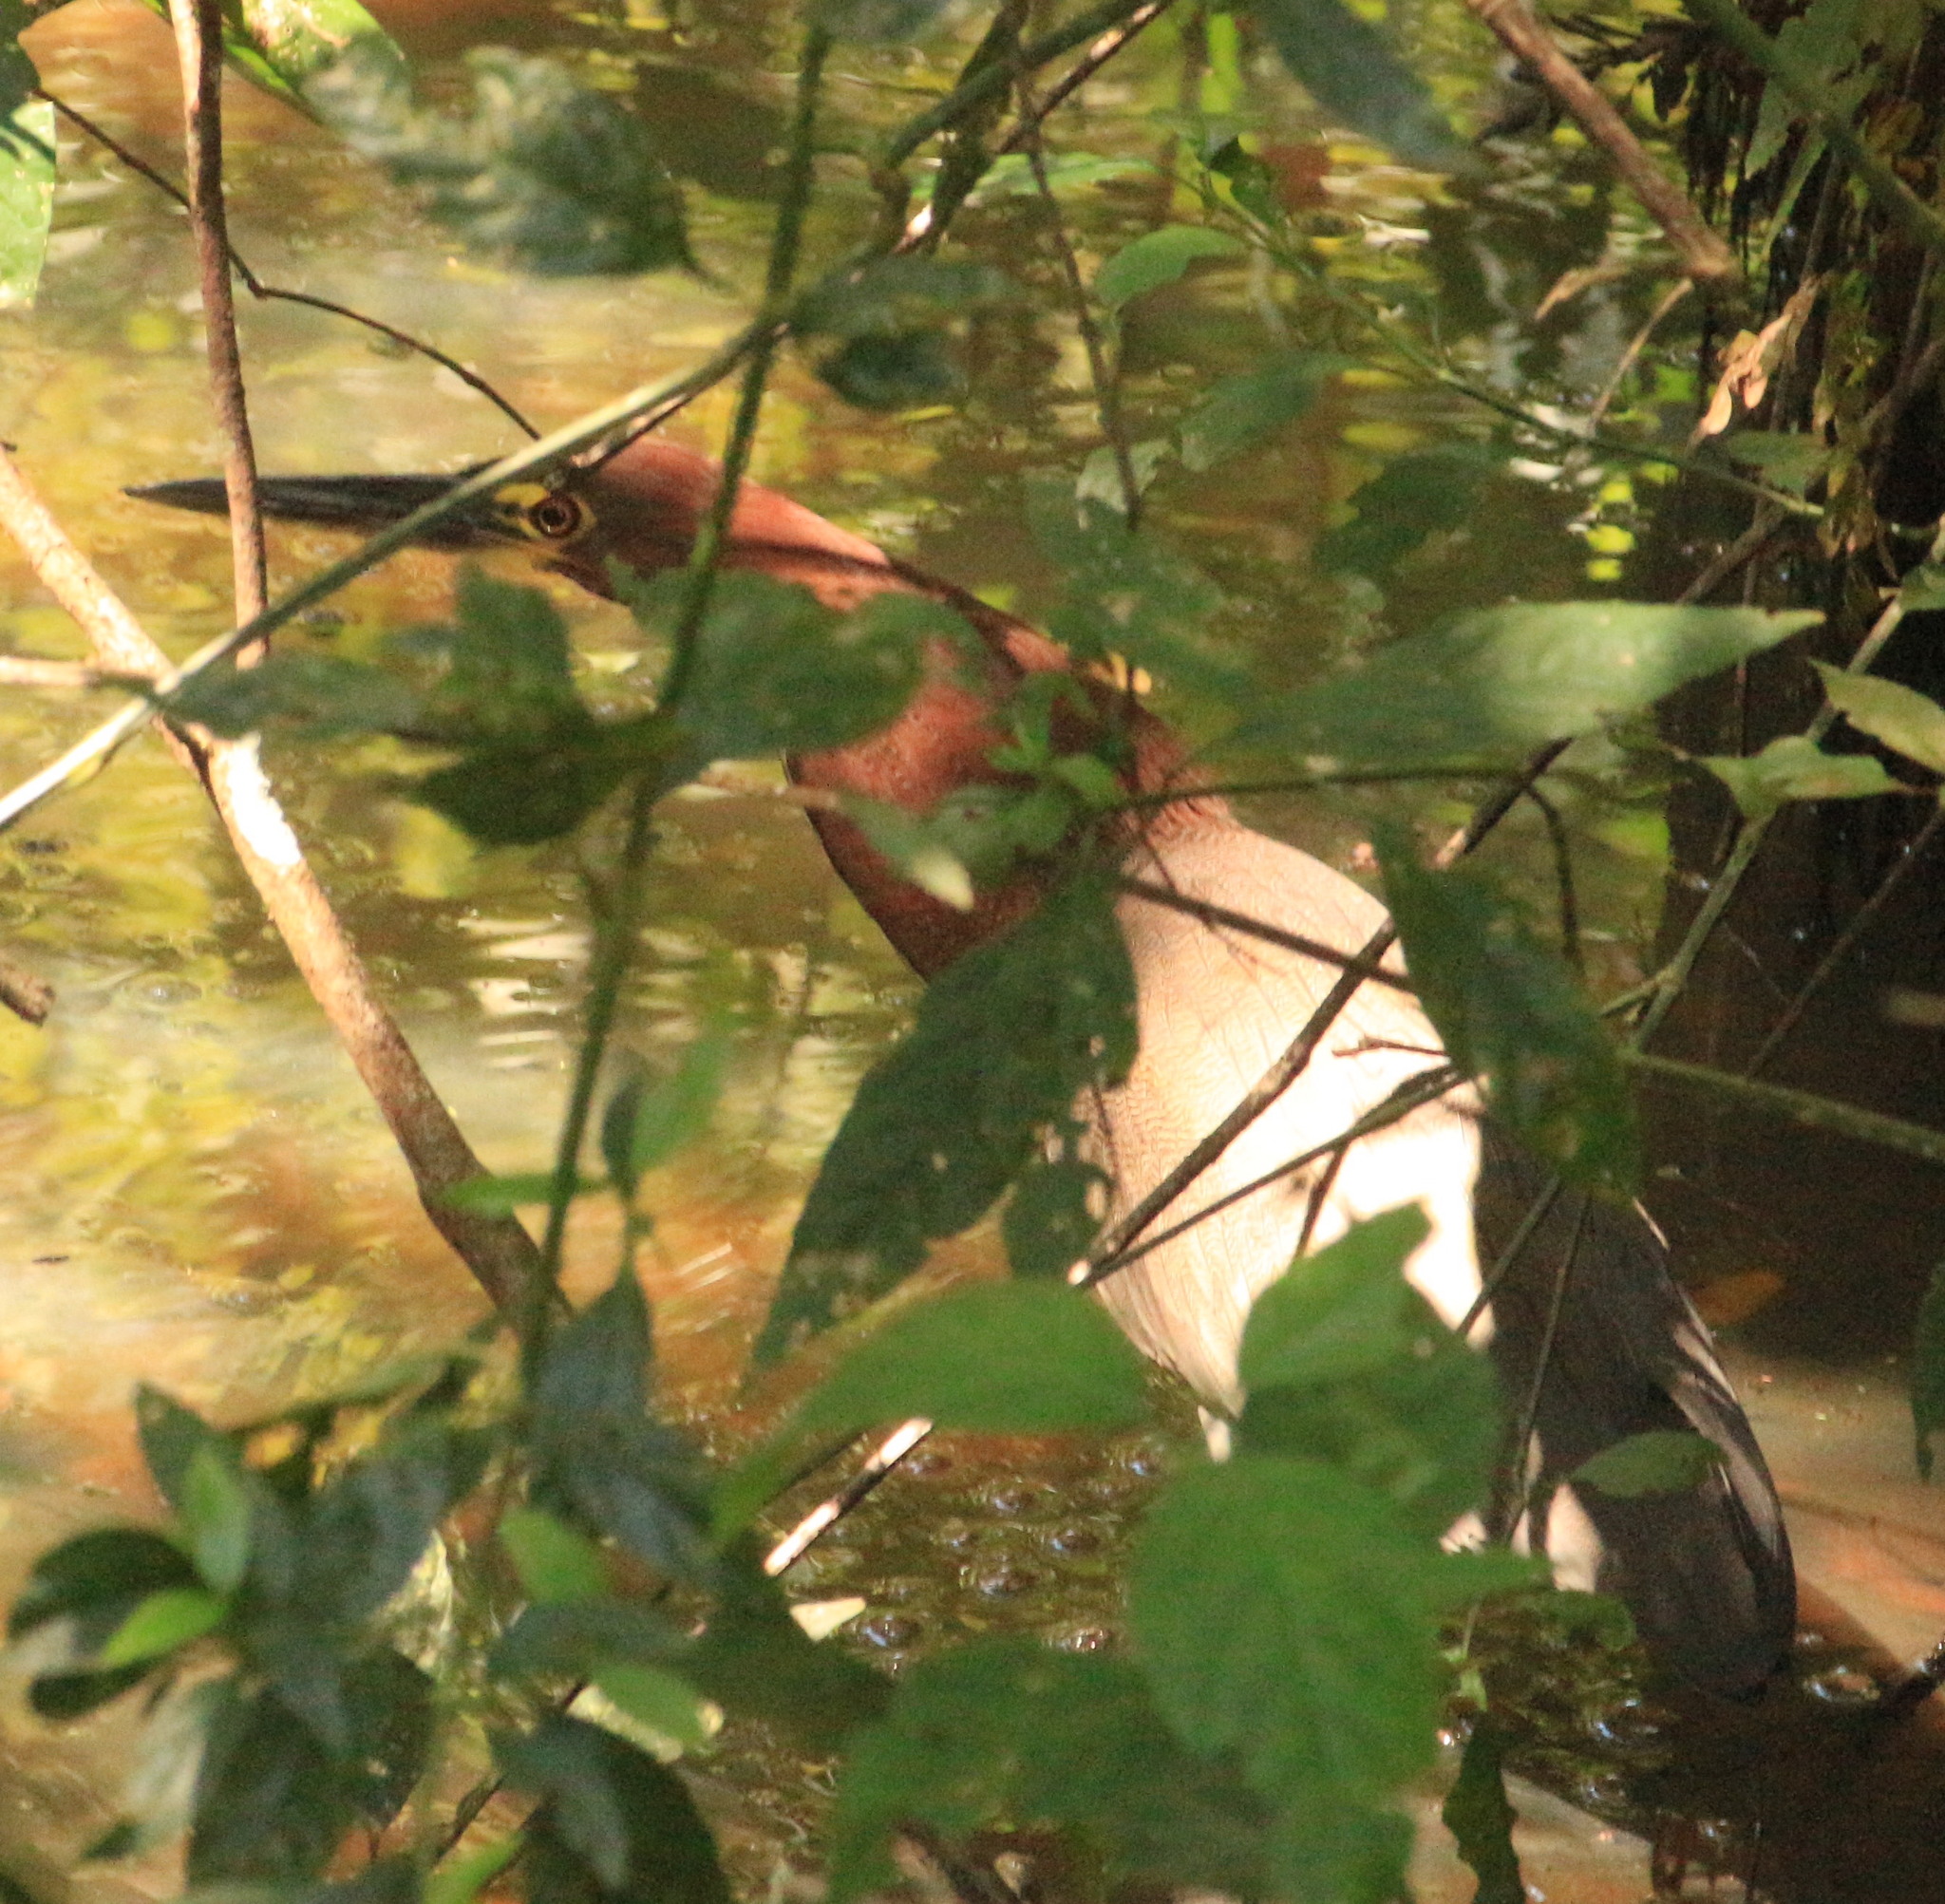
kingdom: Animalia
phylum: Chordata
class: Aves
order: Pelecaniformes
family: Ardeidae
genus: Tigrisoma
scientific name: Tigrisoma lineatum
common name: Rufescent tiger-heron
